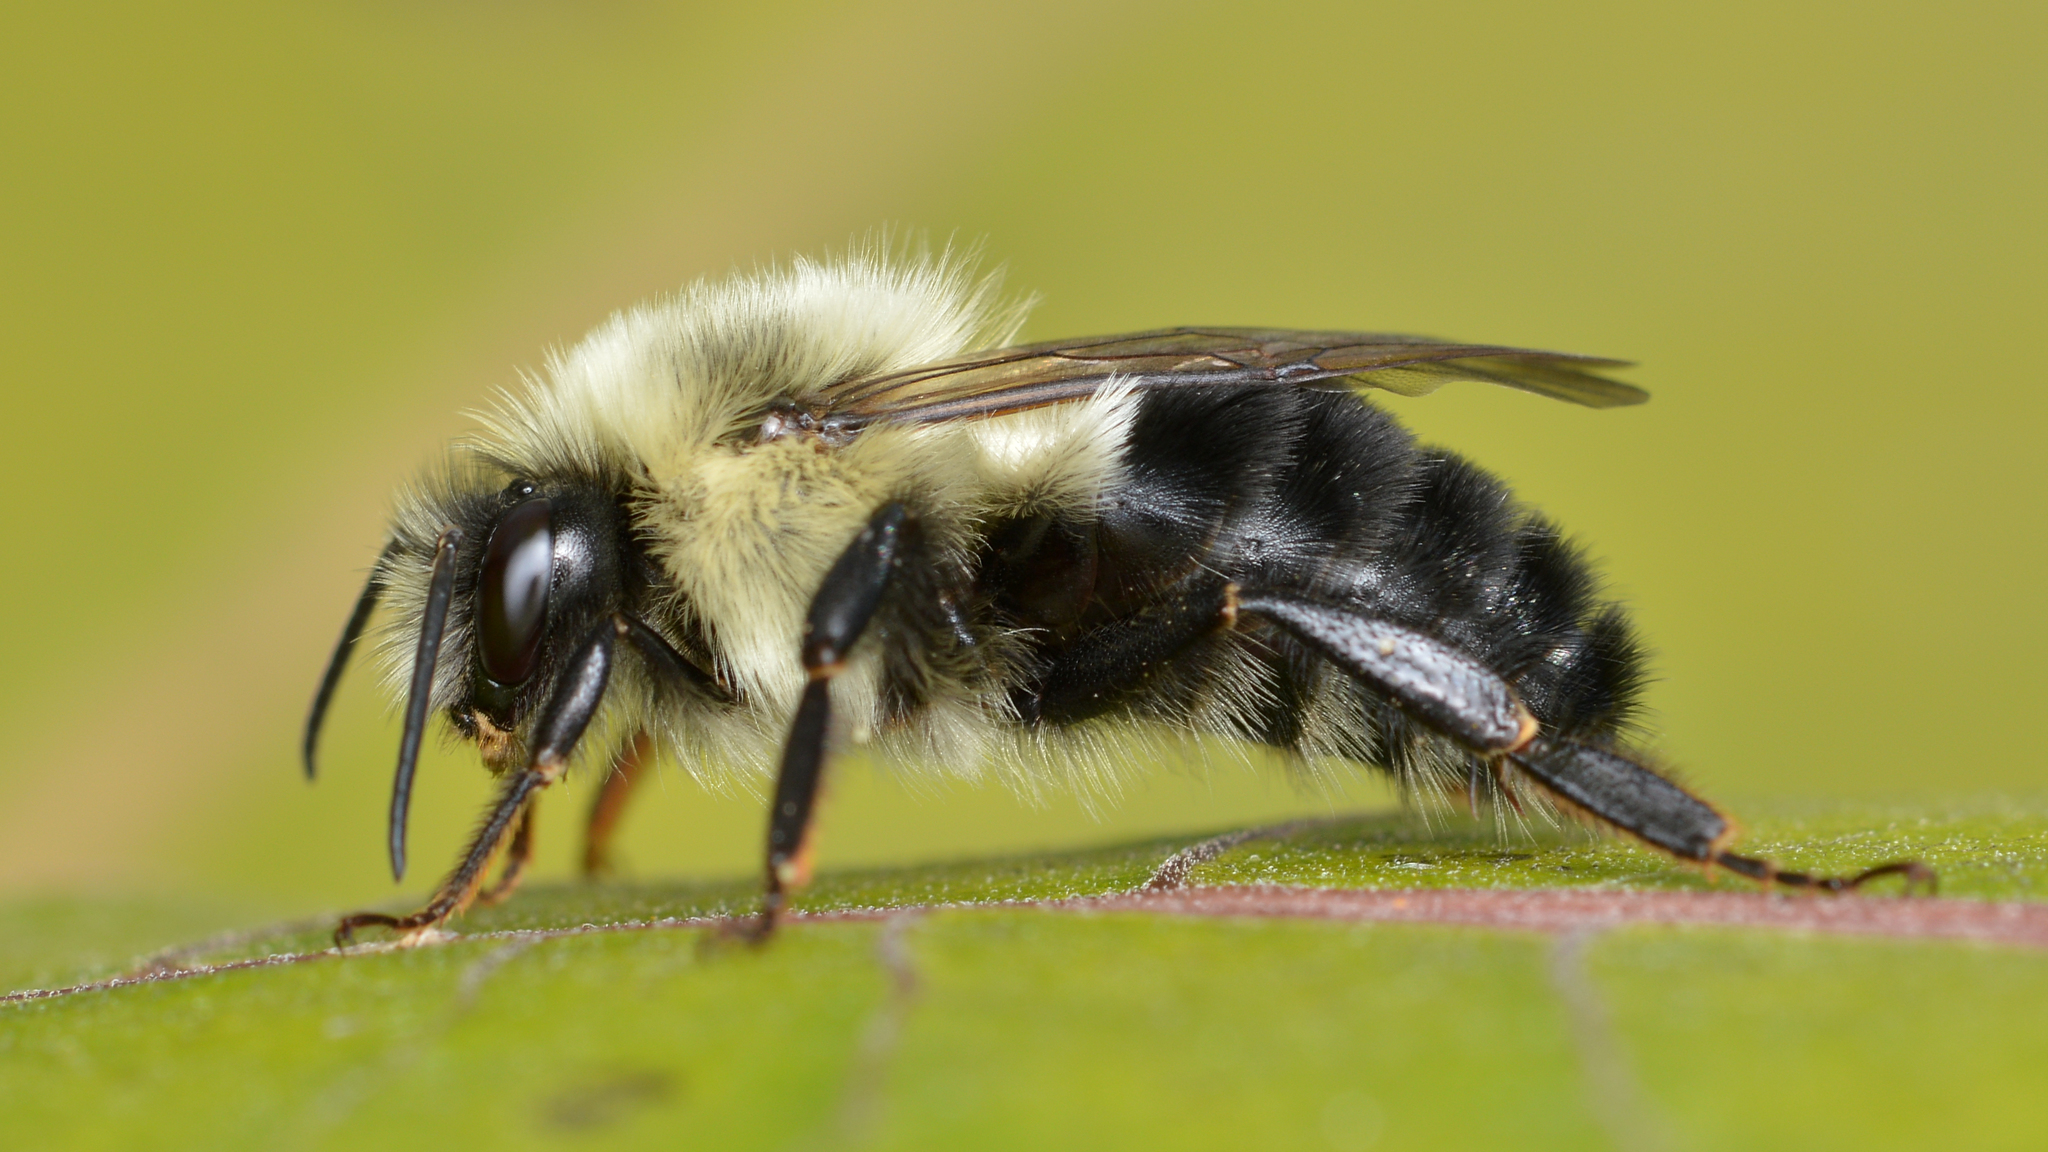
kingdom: Animalia
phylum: Arthropoda
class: Insecta
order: Hymenoptera
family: Apidae
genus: Bombus
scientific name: Bombus impatiens
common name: Common eastern bumble bee
